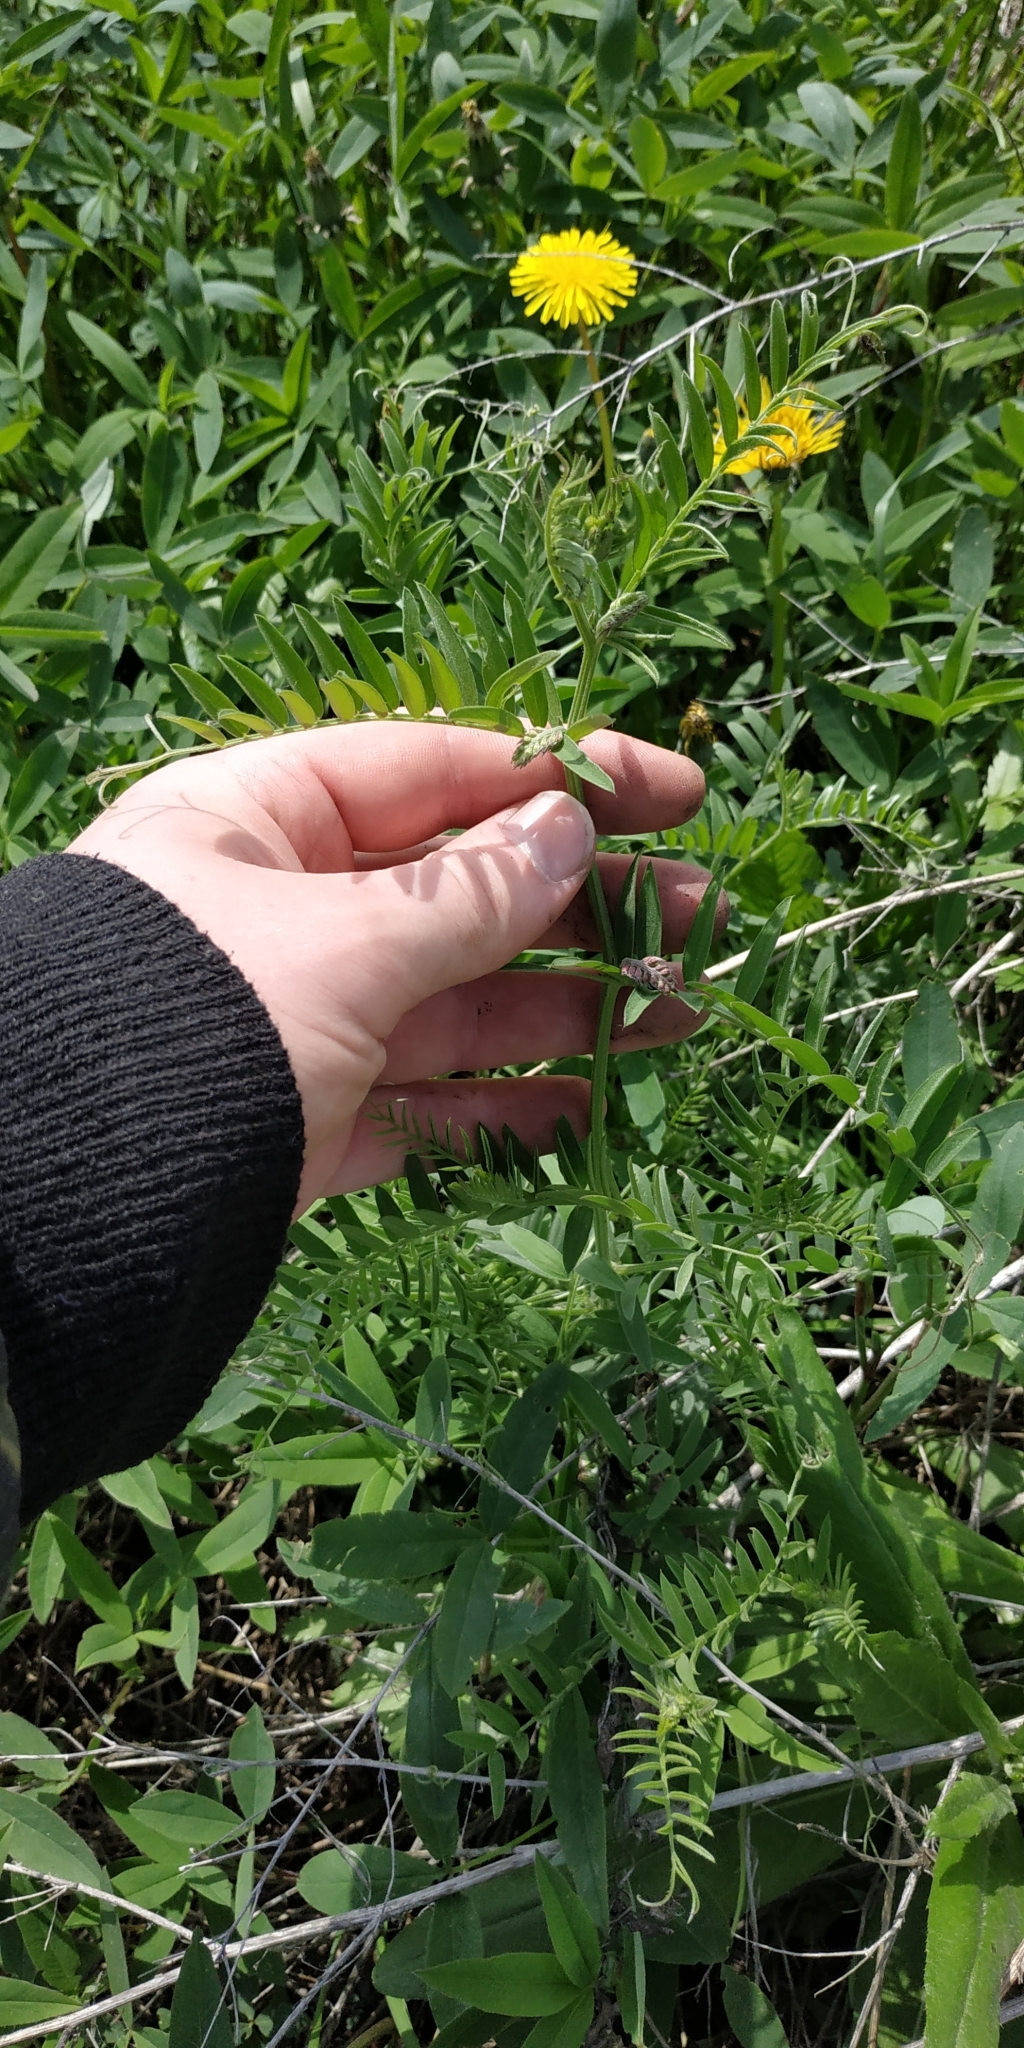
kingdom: Plantae
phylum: Tracheophyta
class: Magnoliopsida
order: Fabales
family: Fabaceae
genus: Vicia
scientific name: Vicia cracca
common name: Bird vetch
